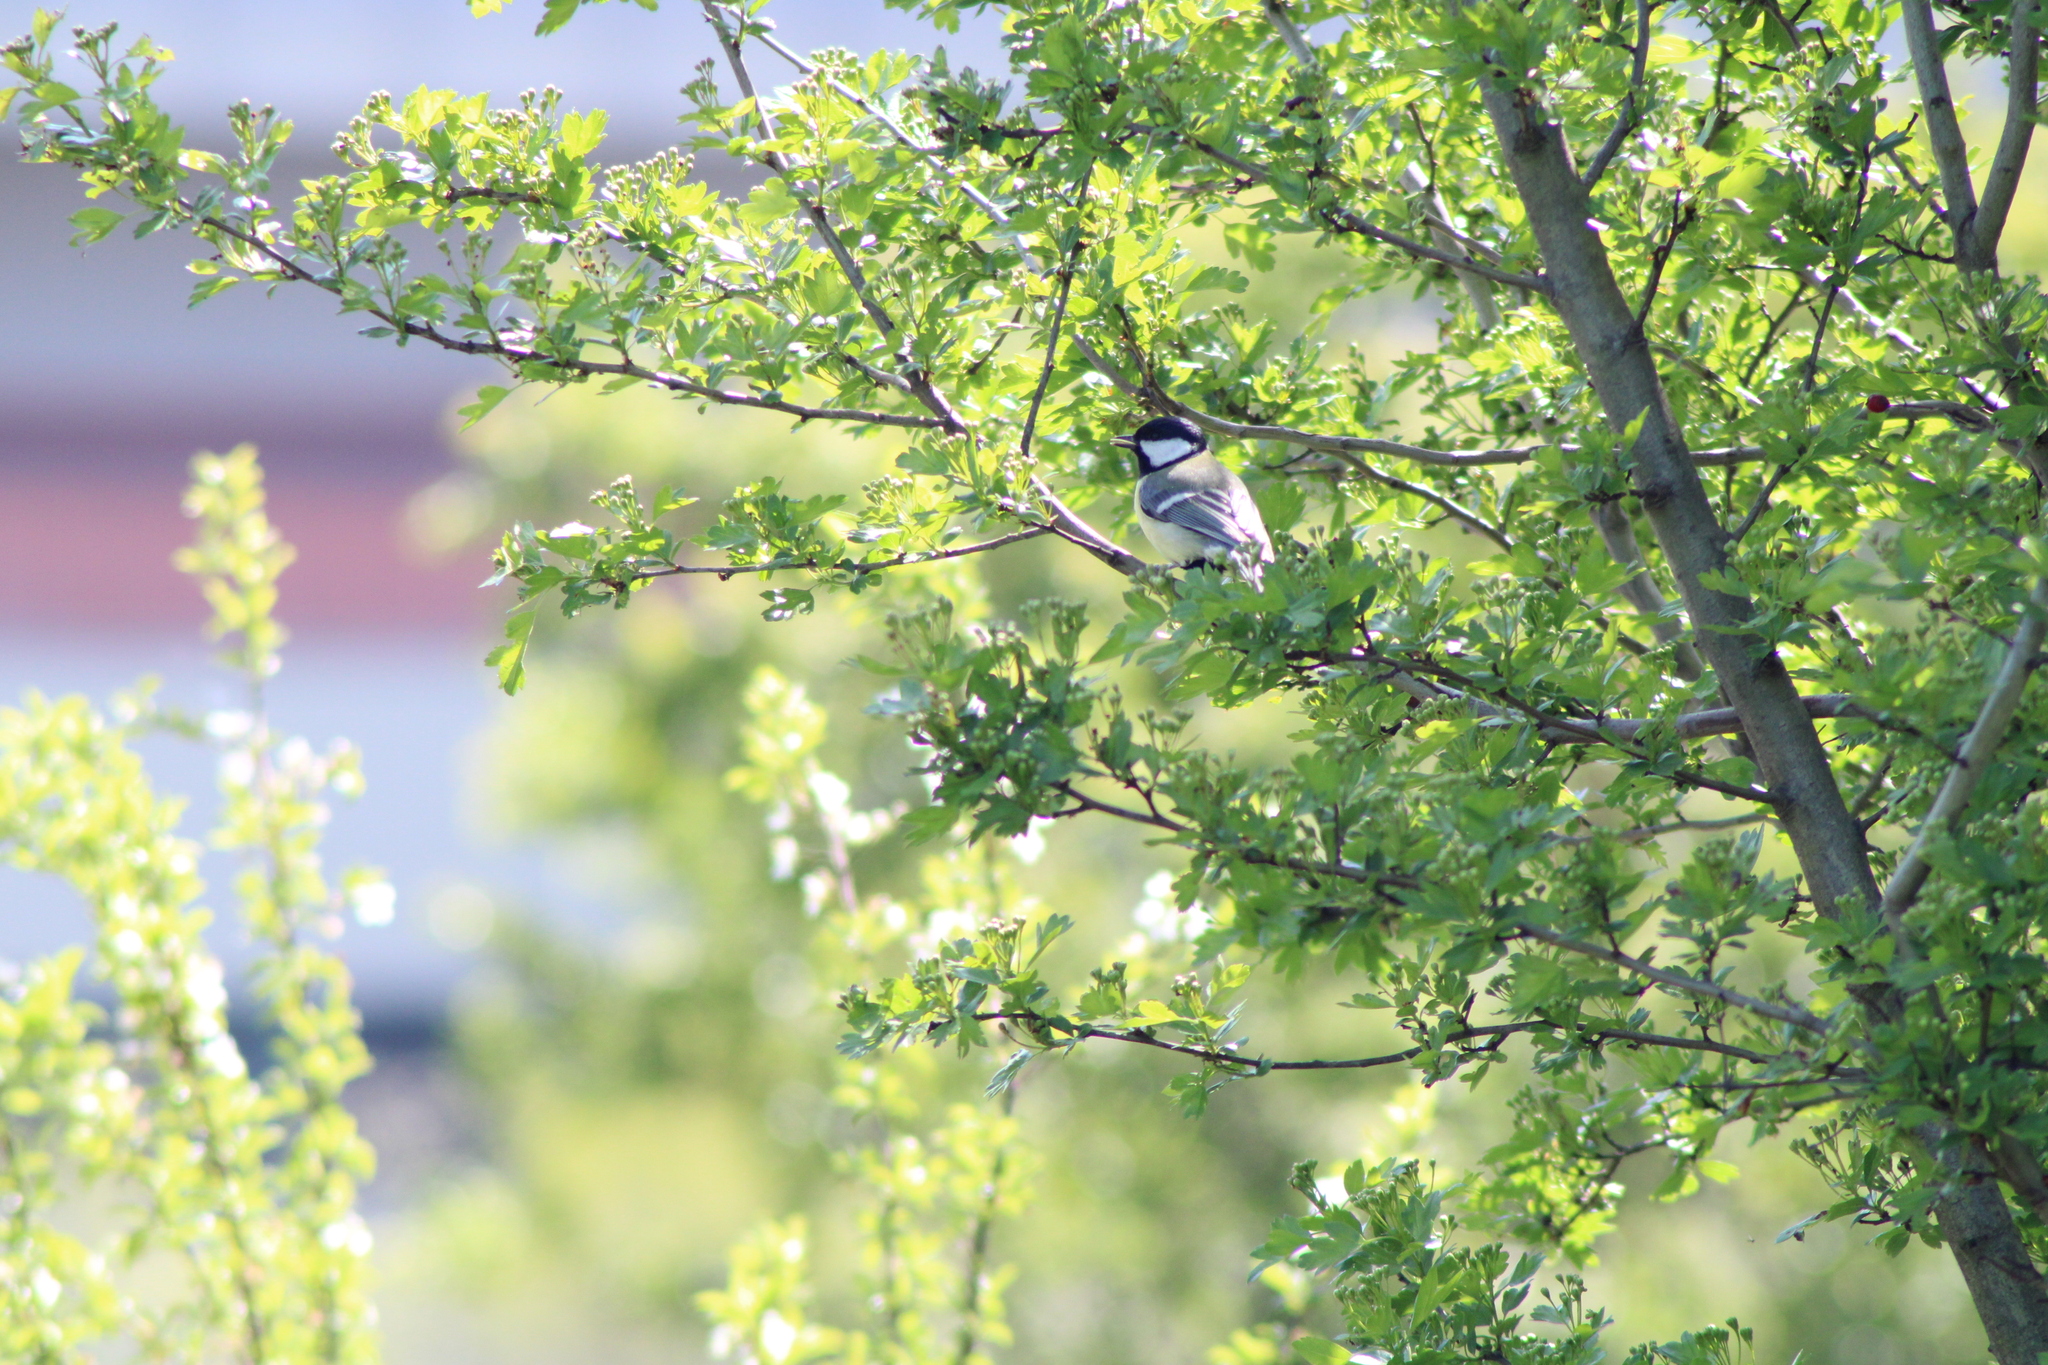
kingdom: Animalia
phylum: Chordata
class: Aves
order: Passeriformes
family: Paridae
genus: Parus
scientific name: Parus major
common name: Great tit
